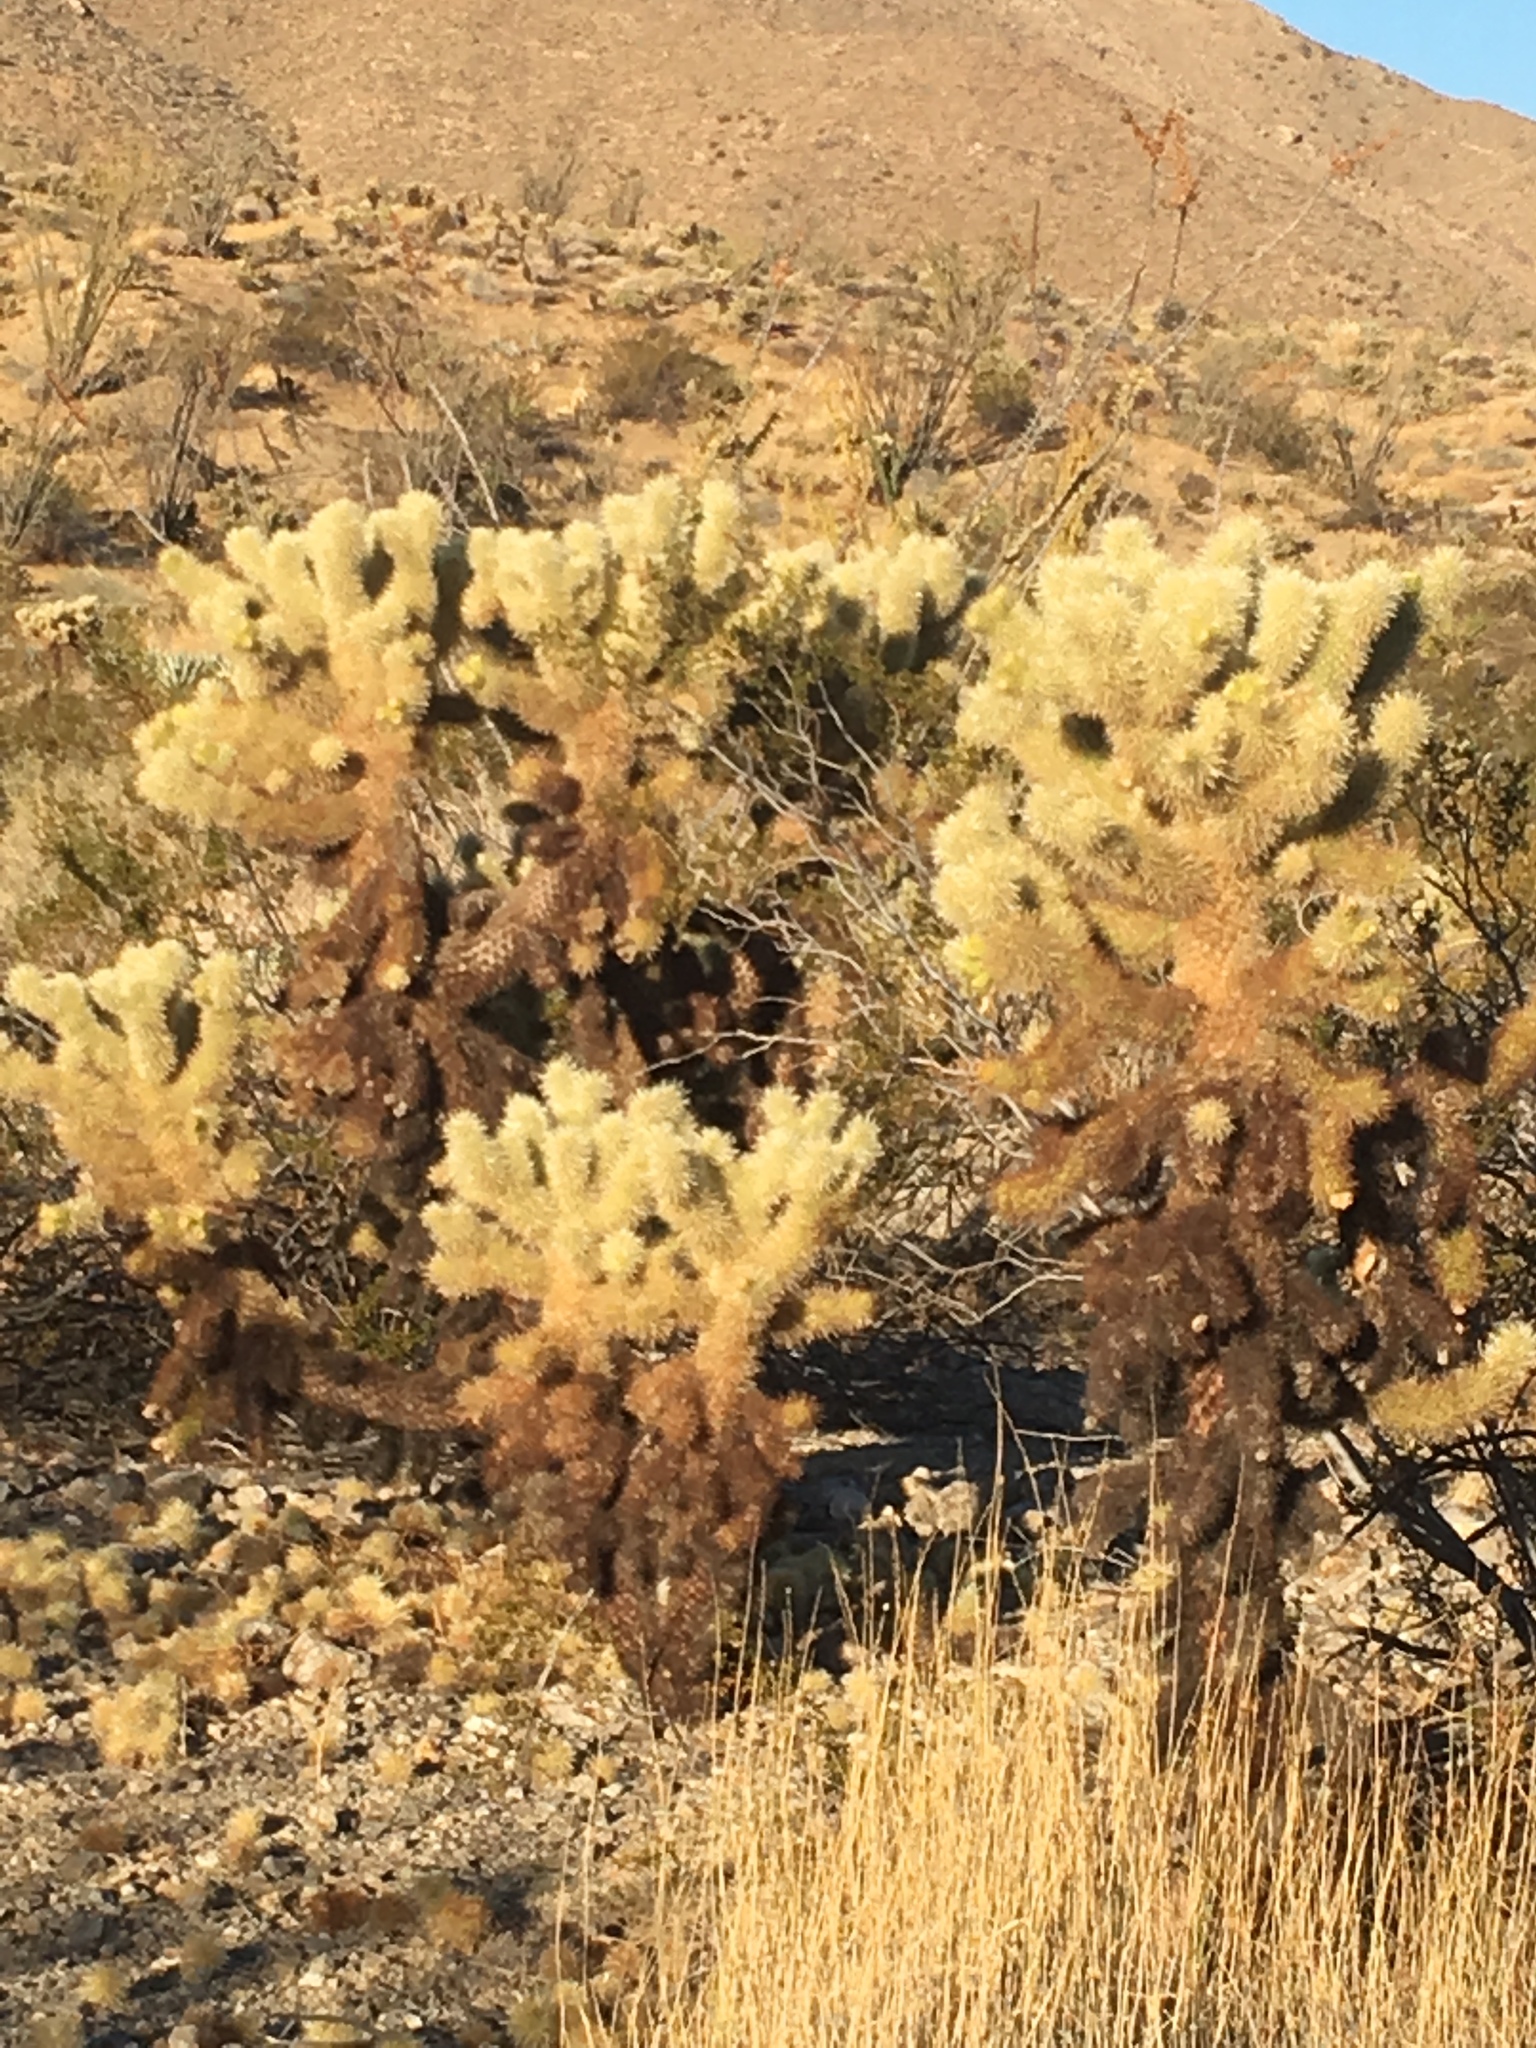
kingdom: Plantae
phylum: Tracheophyta
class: Magnoliopsida
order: Caryophyllales
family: Cactaceae
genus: Cylindropuntia
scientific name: Cylindropuntia fosbergii
